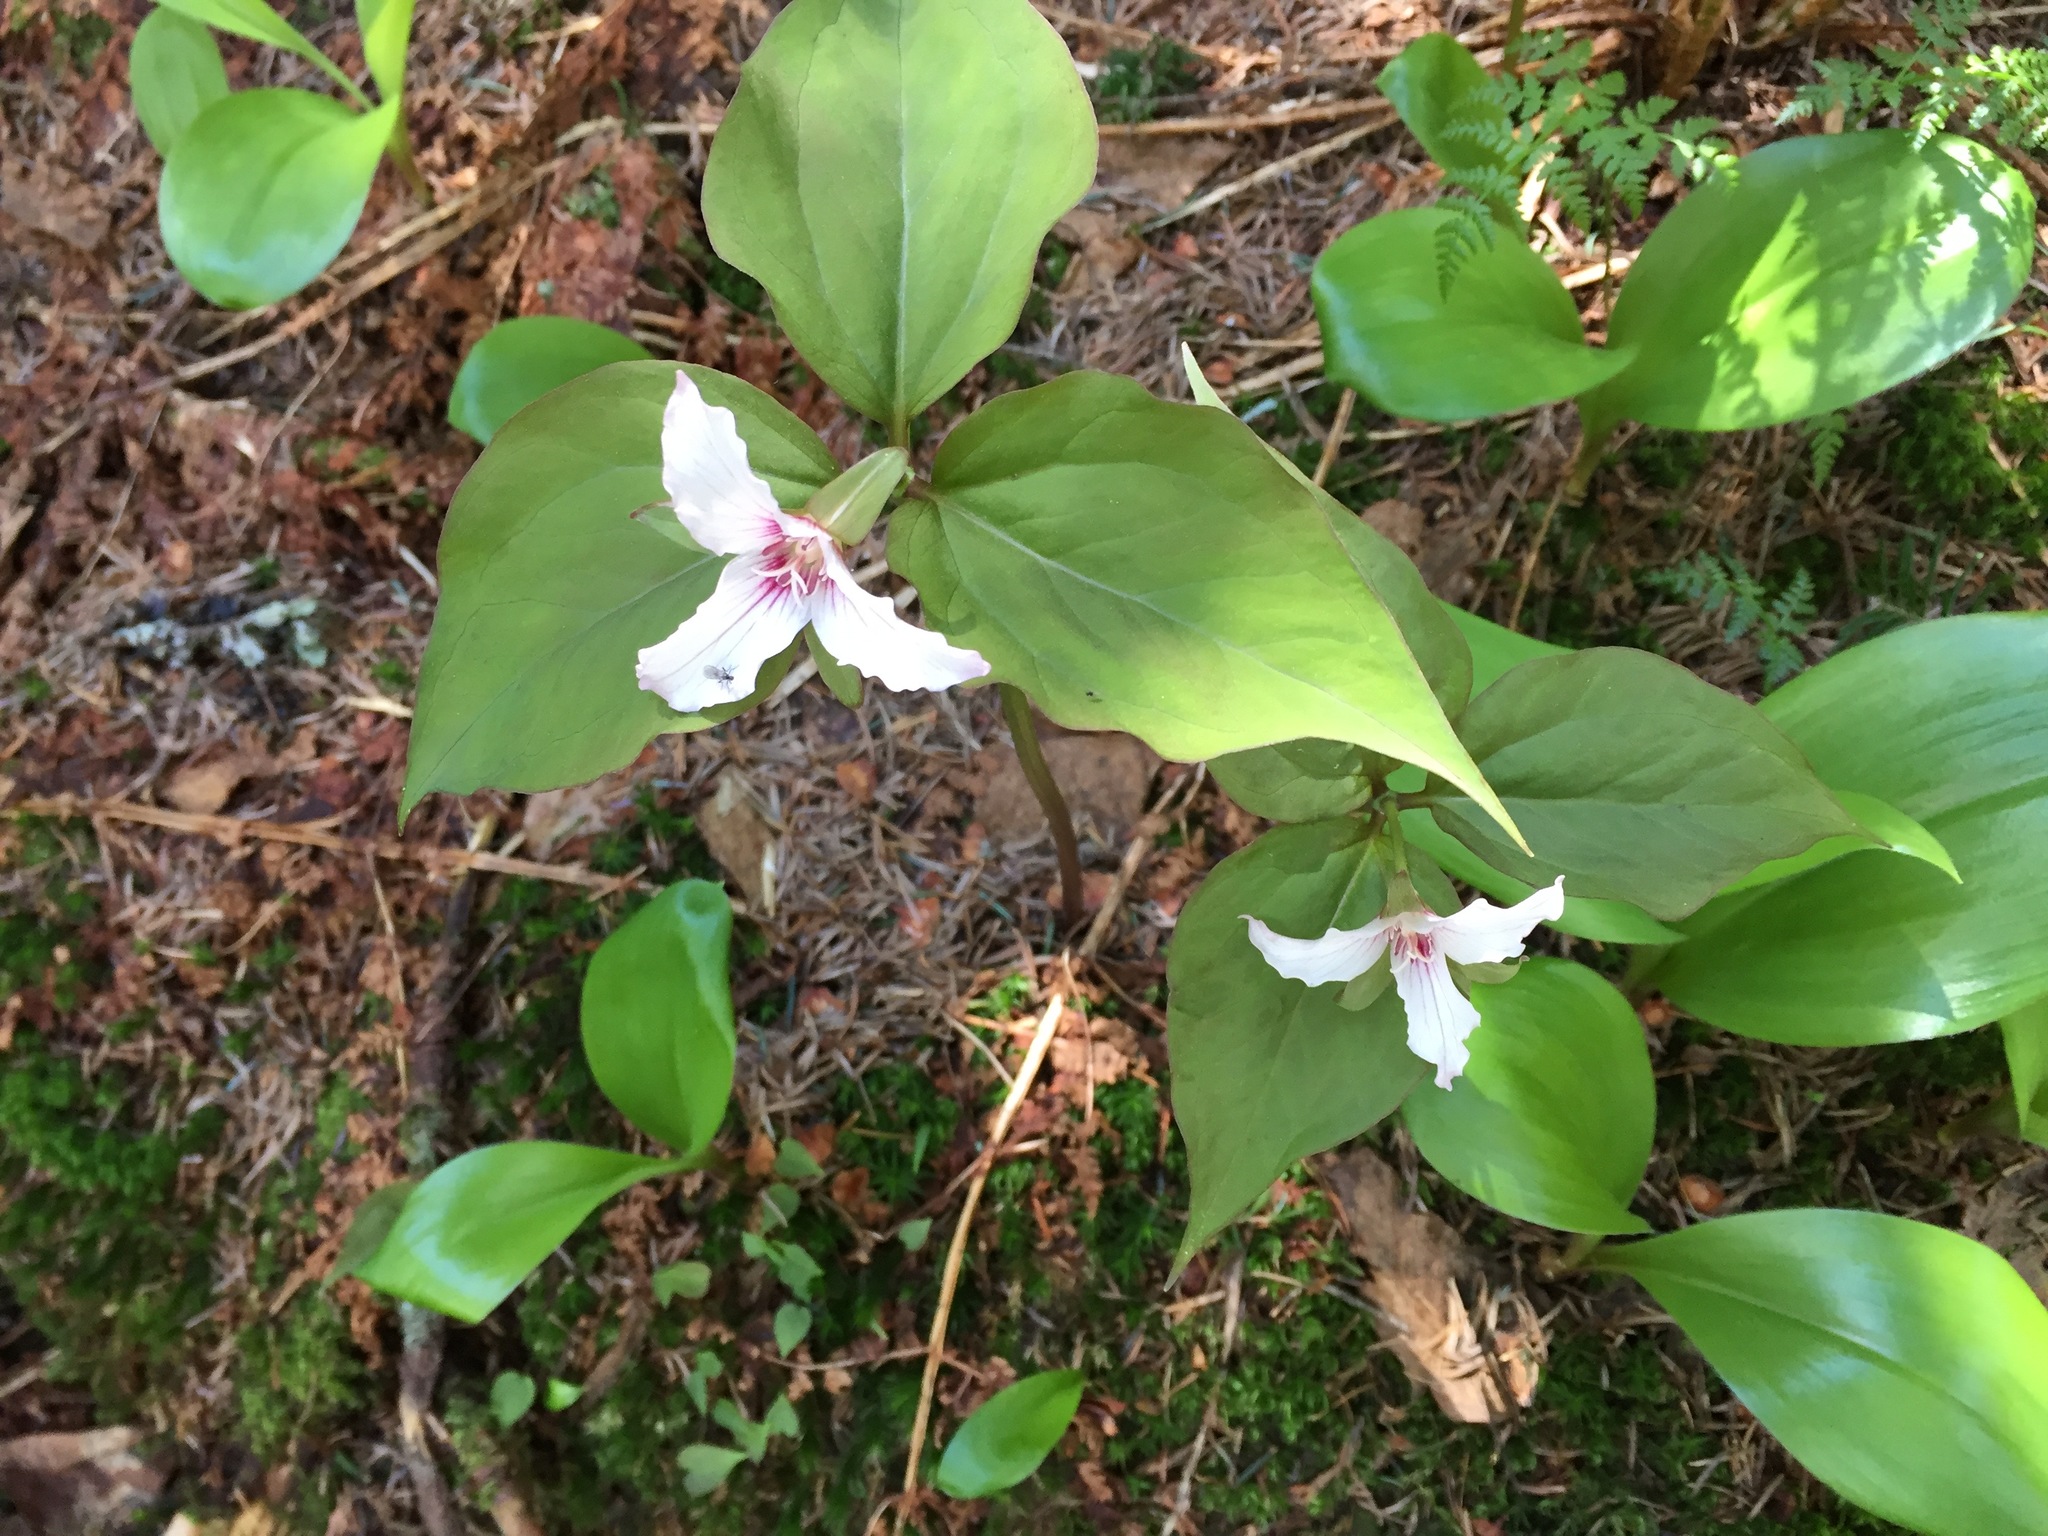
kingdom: Plantae
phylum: Tracheophyta
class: Liliopsida
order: Liliales
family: Melanthiaceae
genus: Trillium
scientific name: Trillium undulatum
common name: Paint trillium
